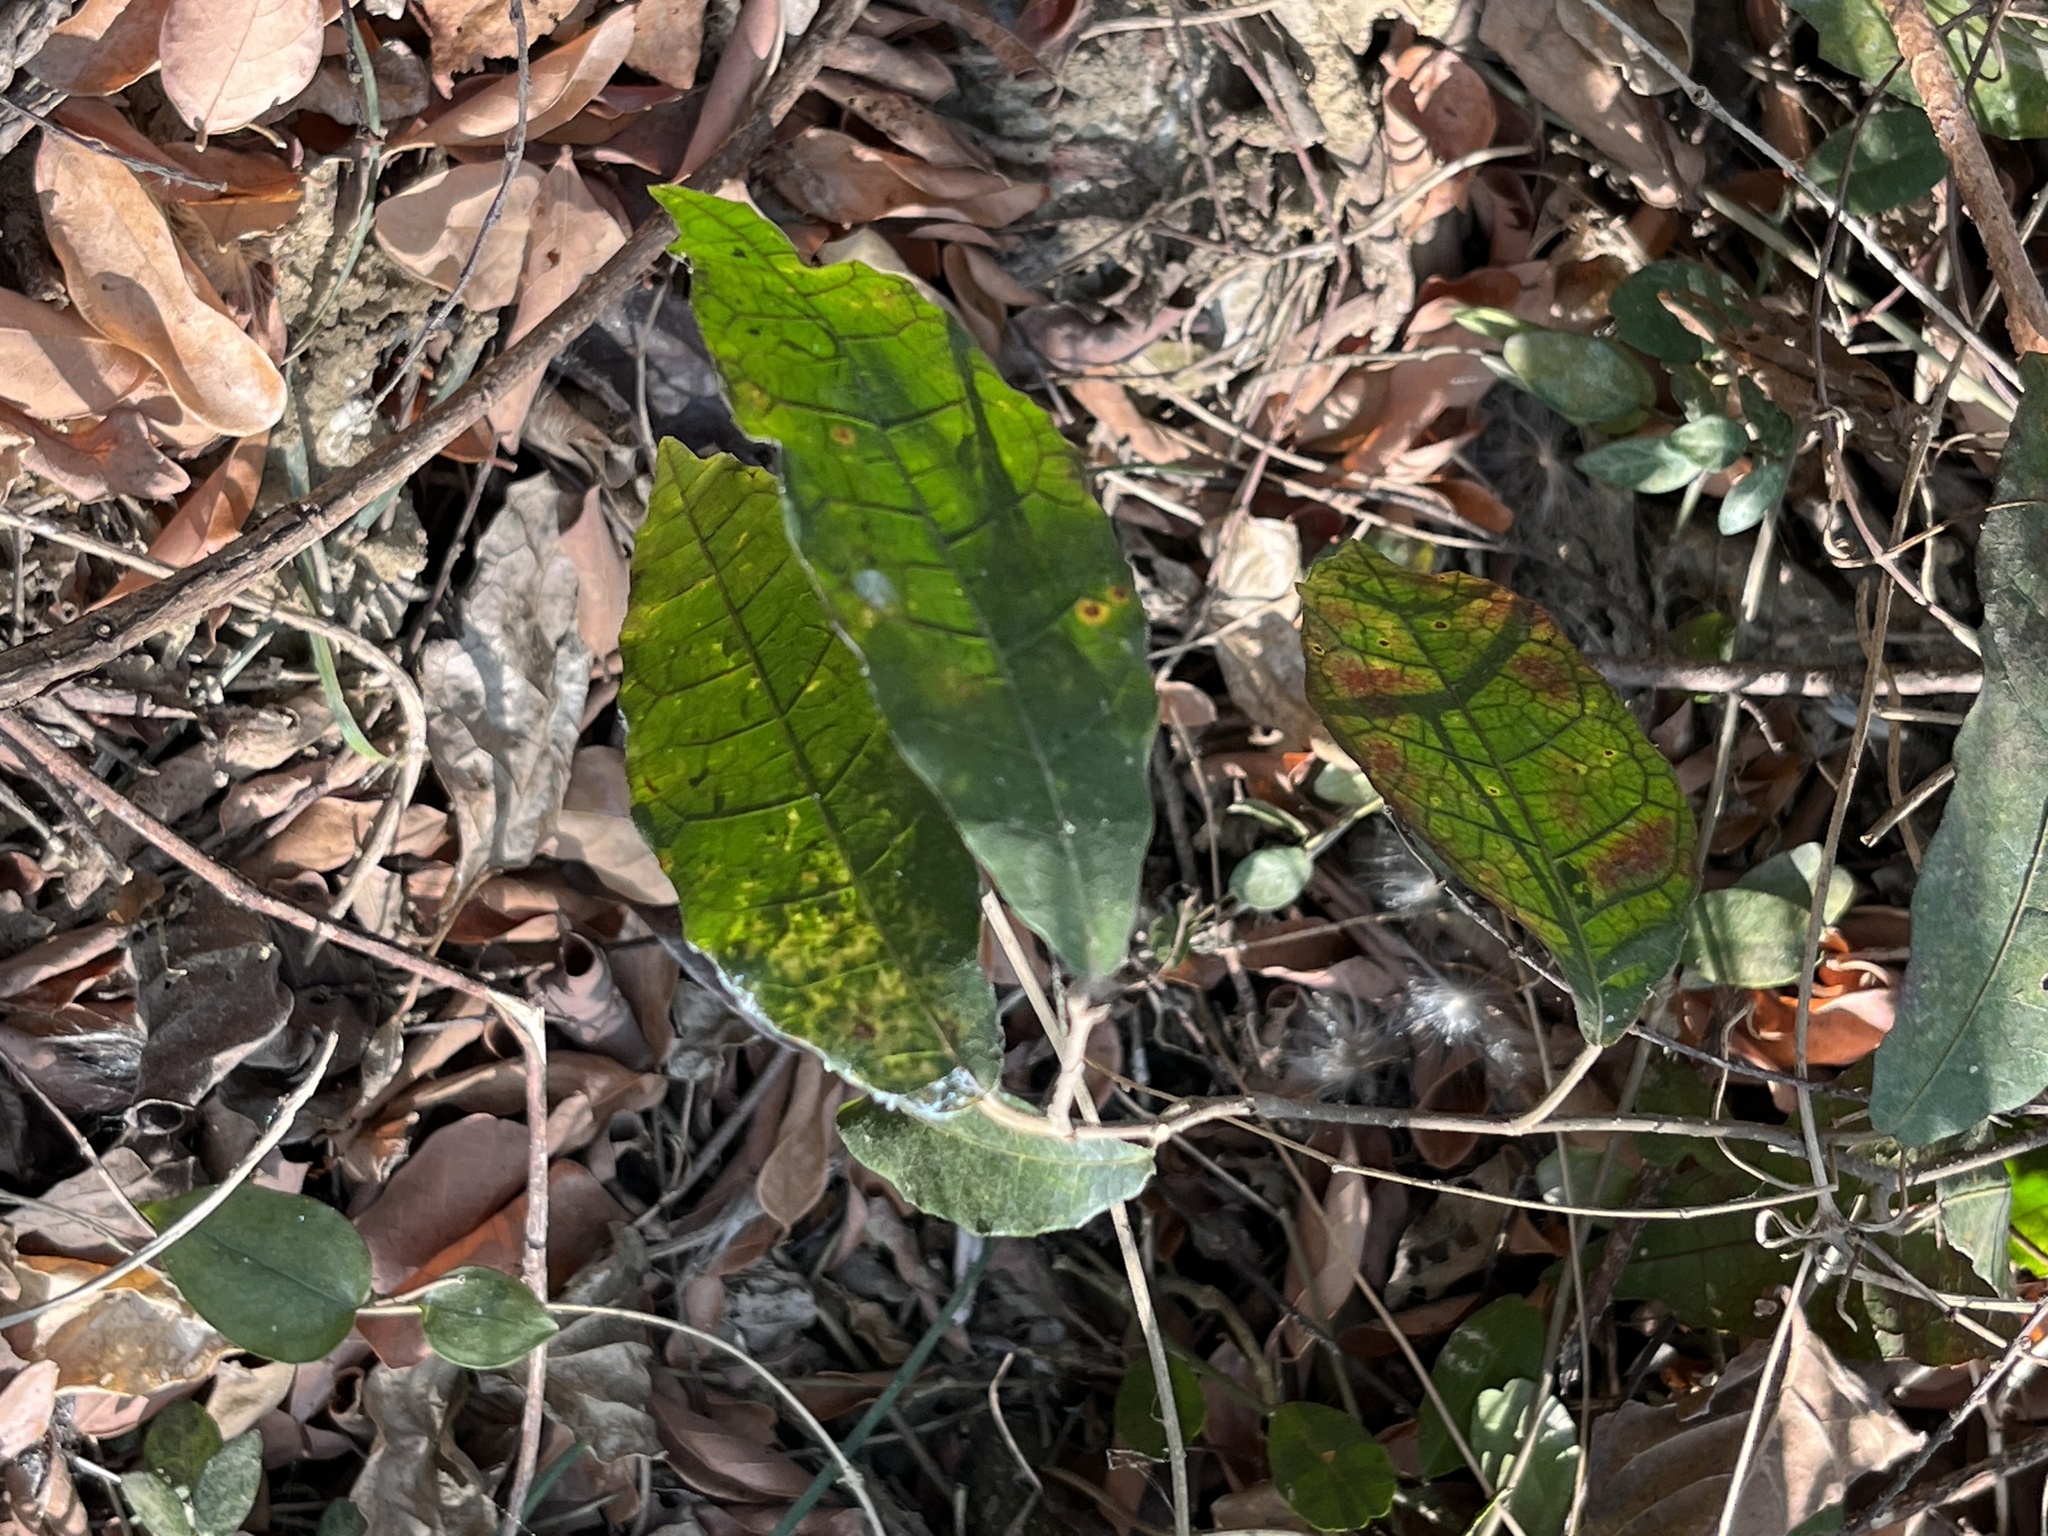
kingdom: Plantae
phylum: Tracheophyta
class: Magnoliopsida
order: Solanales
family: Convolvulaceae
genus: Merremia
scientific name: Merremia gemella
